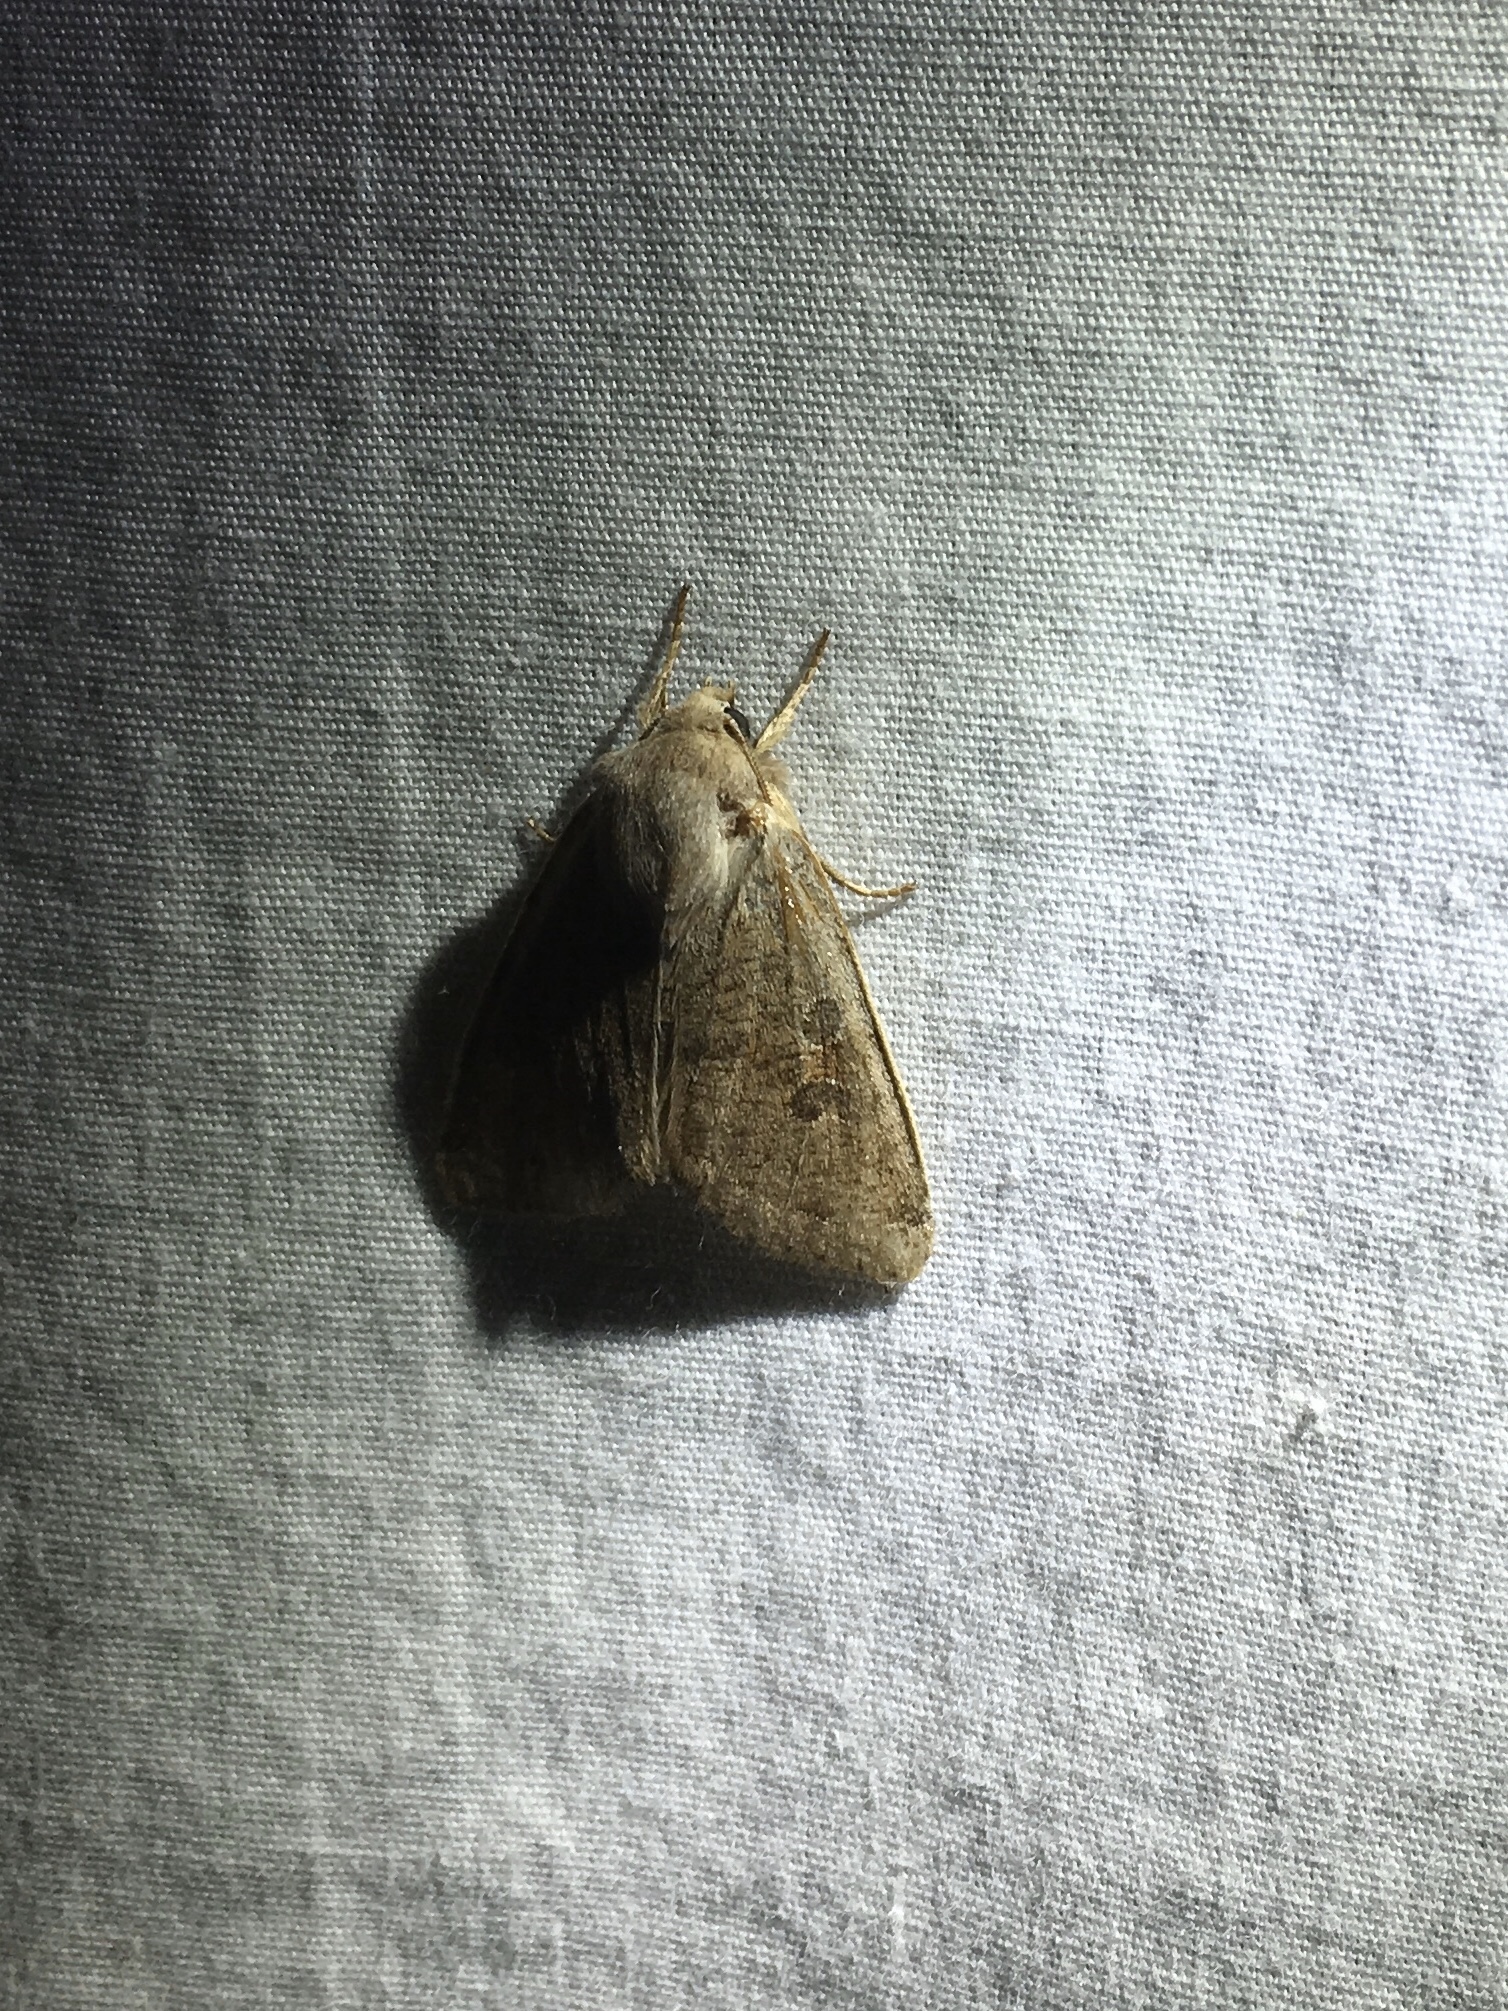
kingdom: Animalia
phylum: Arthropoda
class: Insecta
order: Lepidoptera
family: Noctuidae
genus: Orthosia
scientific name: Orthosia hibisci
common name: Green fruitworm
